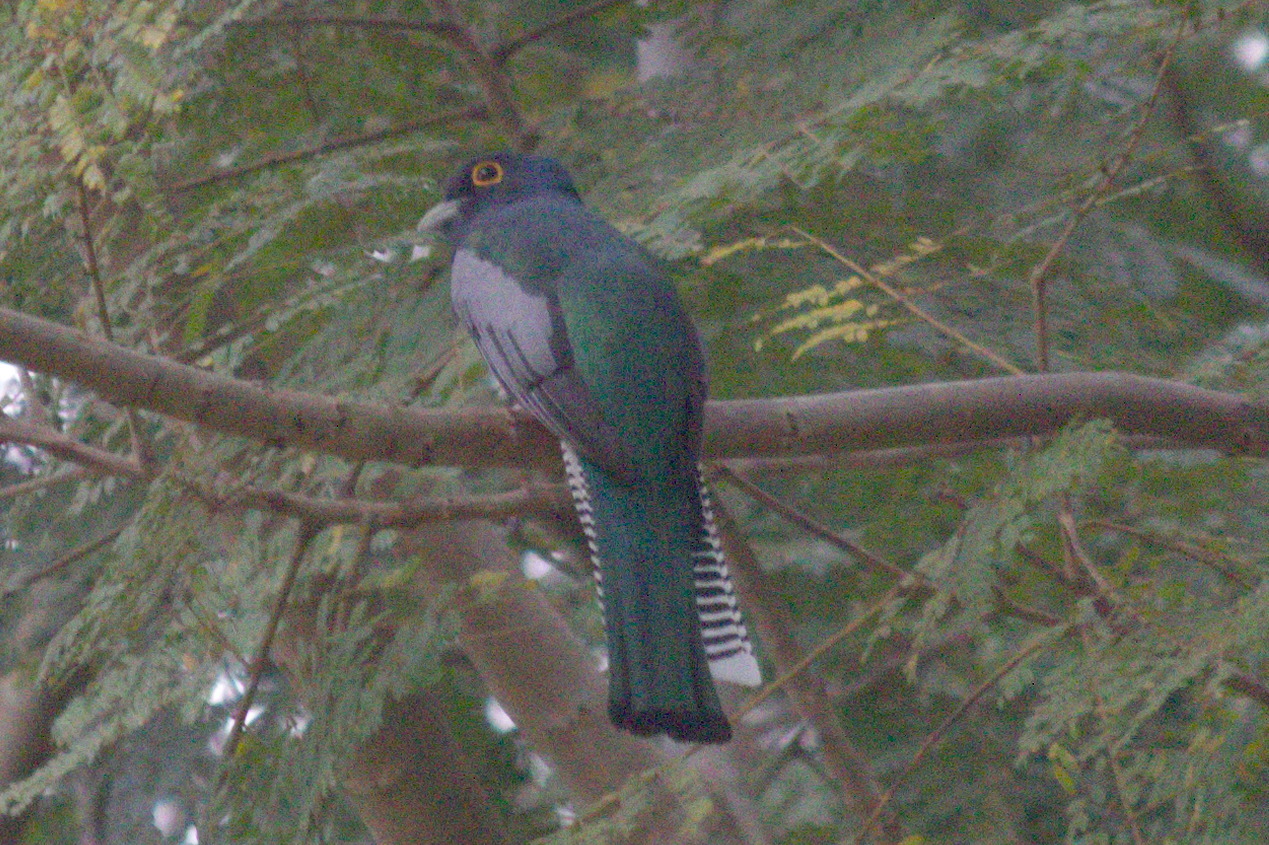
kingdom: Animalia
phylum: Chordata
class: Aves
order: Trogoniformes
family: Trogonidae
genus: Trogon
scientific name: Trogon curucui
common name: Blue-crowned trogon
